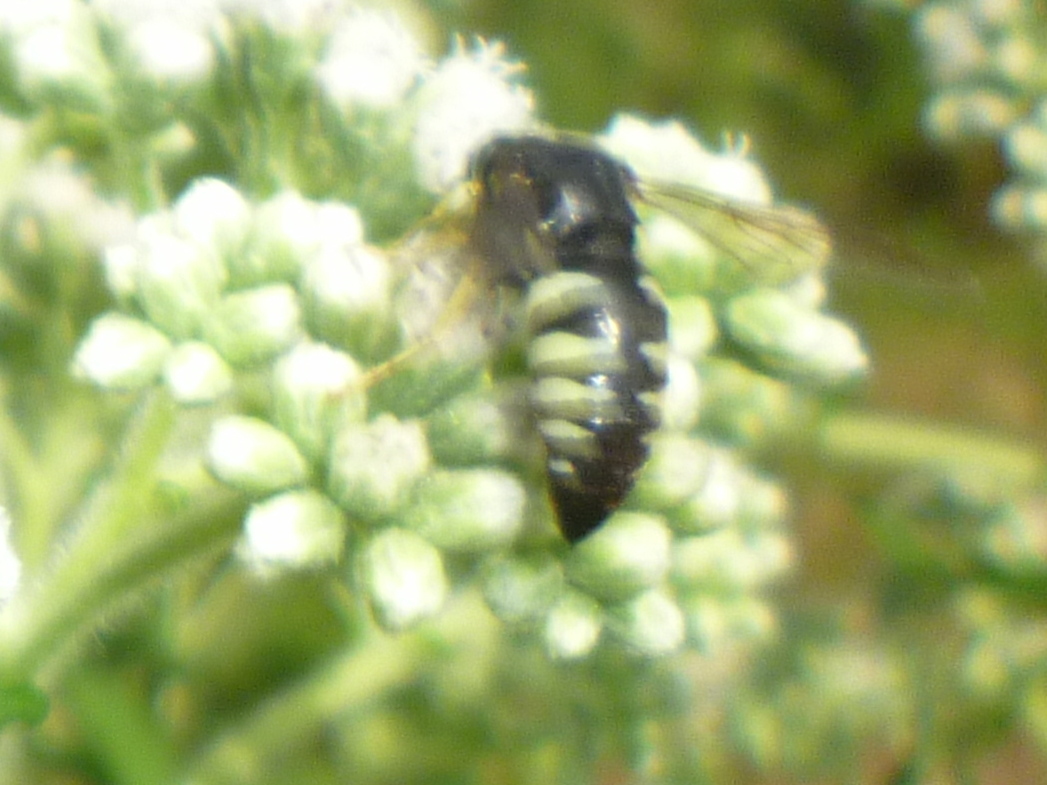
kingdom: Animalia
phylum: Arthropoda
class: Insecta
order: Hymenoptera
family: Crabronidae
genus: Bicyrtes
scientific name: Bicyrtes quadrifasciatus
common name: Four-banded stink bug hunter wasp
